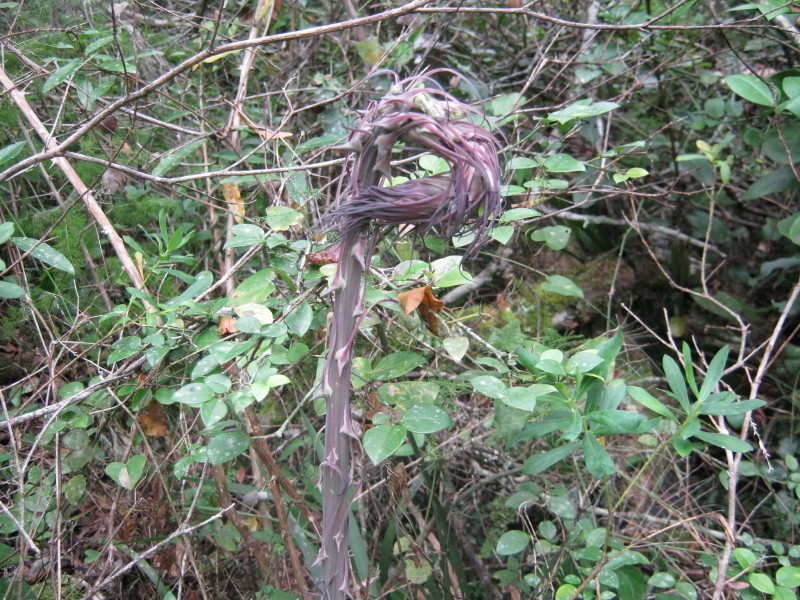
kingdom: Plantae
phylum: Tracheophyta
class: Liliopsida
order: Asparagales
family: Asparagaceae
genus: Asparagus
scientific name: Asparagus macowanii
